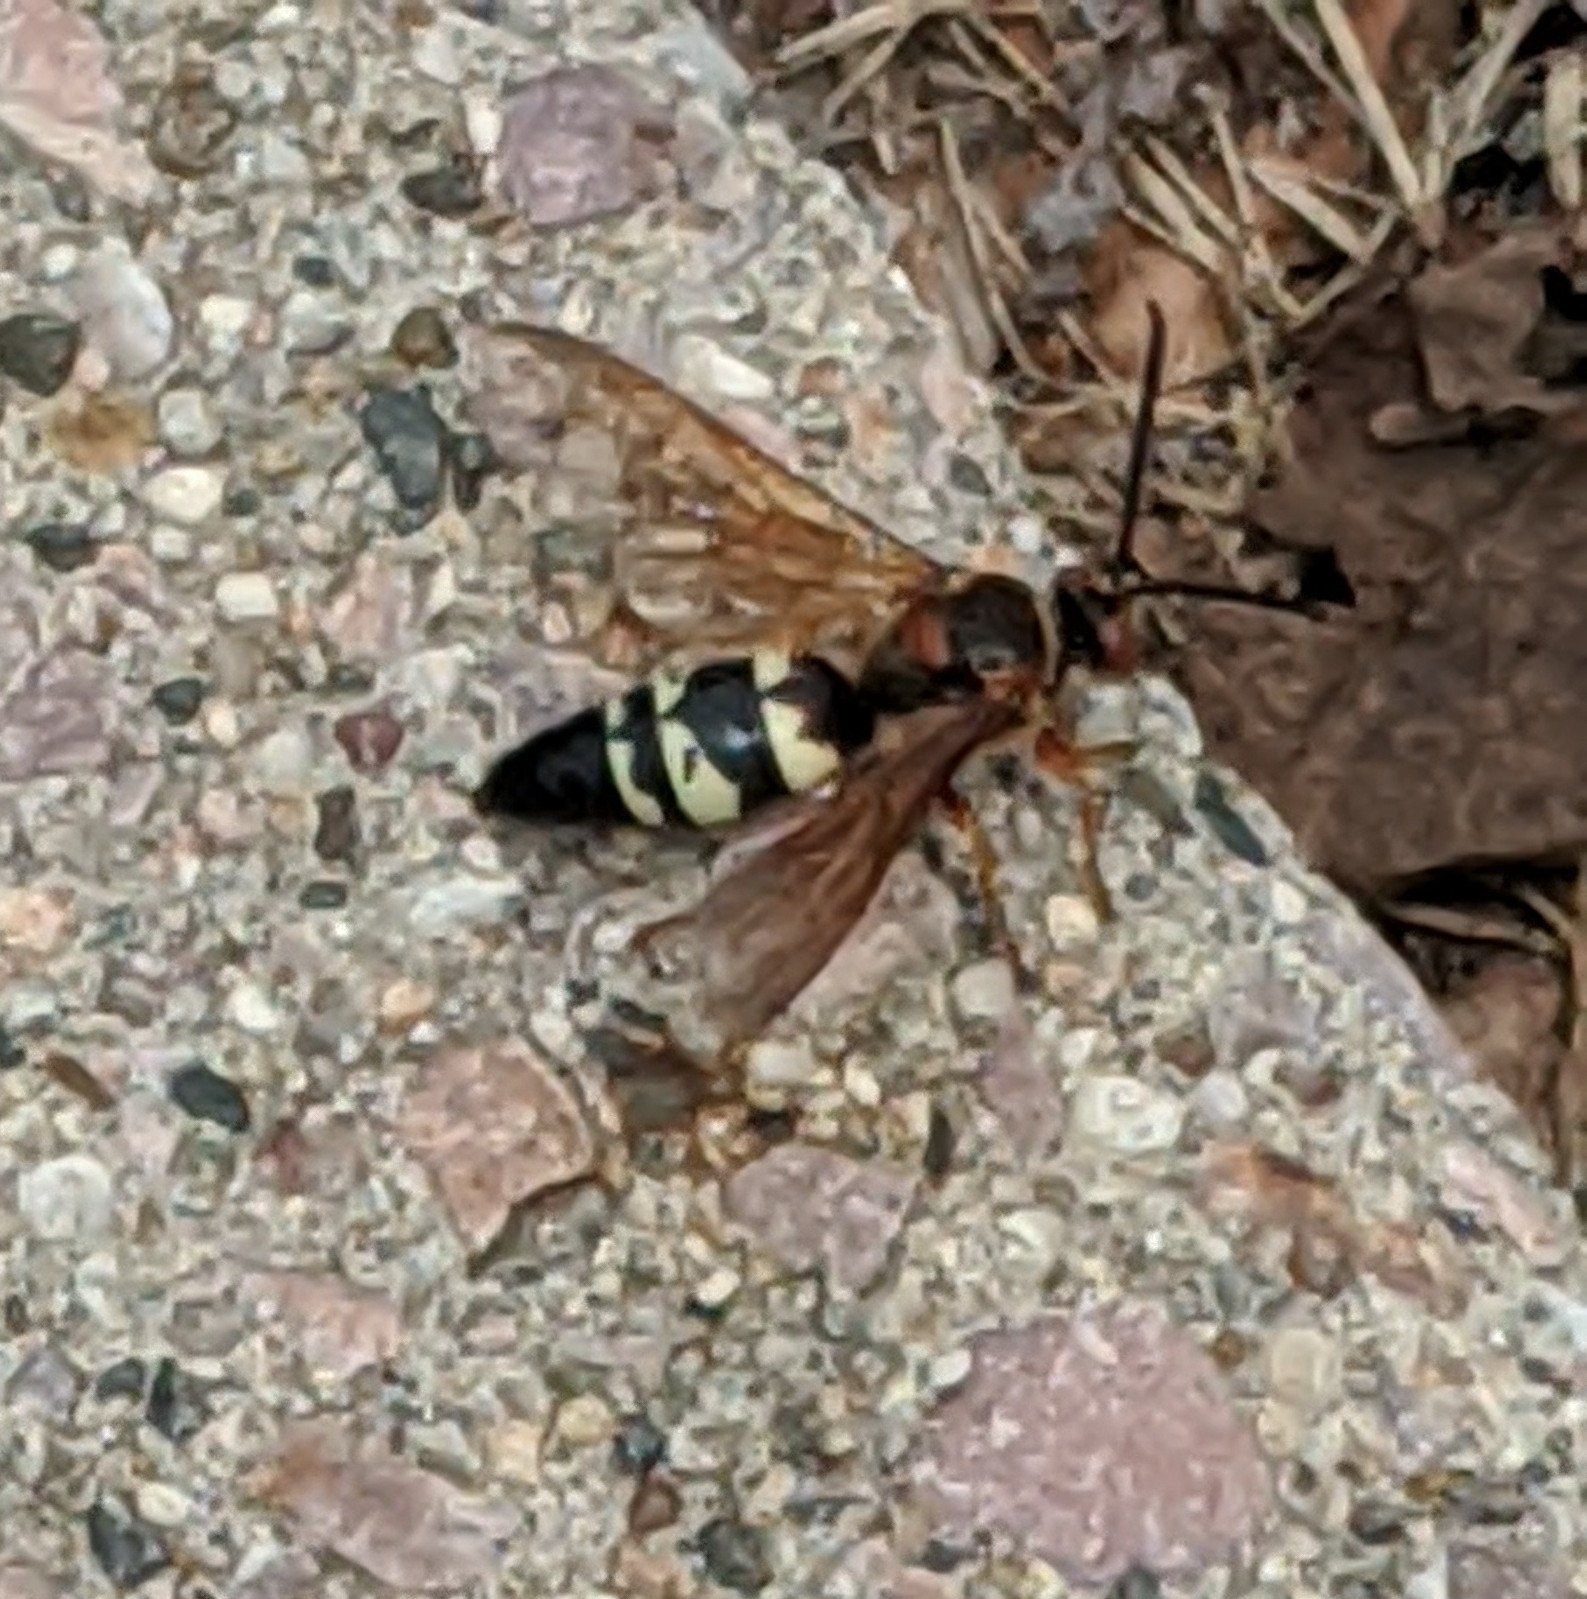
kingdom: Animalia
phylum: Arthropoda
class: Insecta
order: Hymenoptera
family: Crabronidae
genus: Sphecius
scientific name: Sphecius speciosus
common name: Cicada killer
